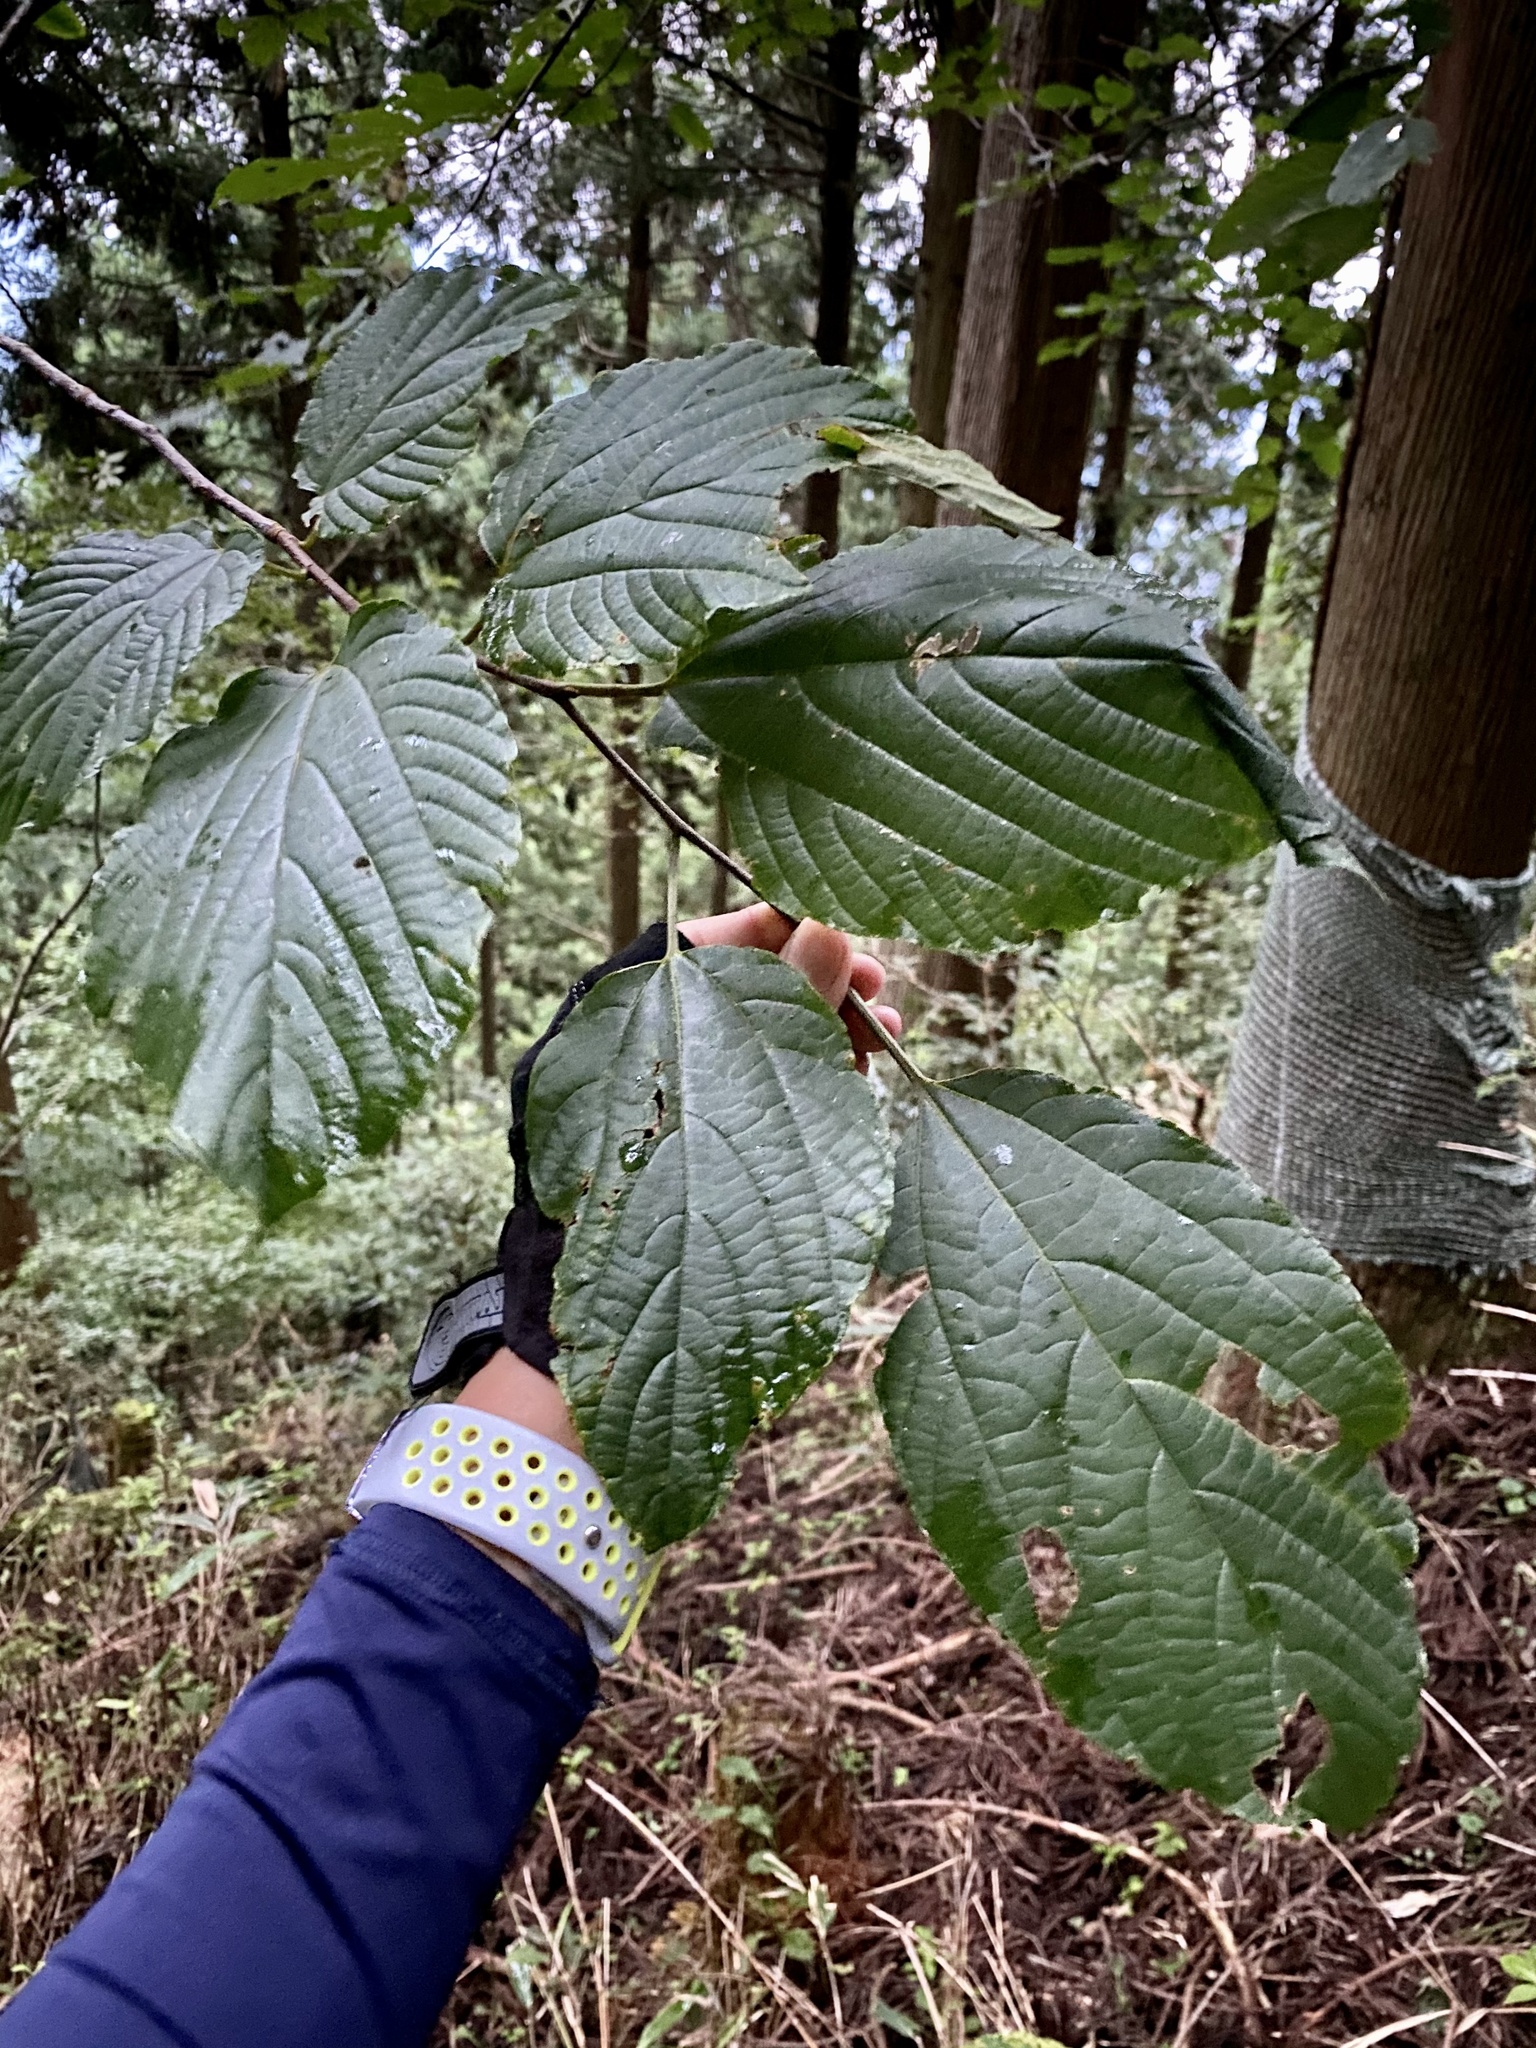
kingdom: Plantae
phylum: Tracheophyta
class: Magnoliopsida
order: Rosales
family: Rhamnaceae
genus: Hovenia
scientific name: Hovenia dulcis
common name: Japanese raisintree
